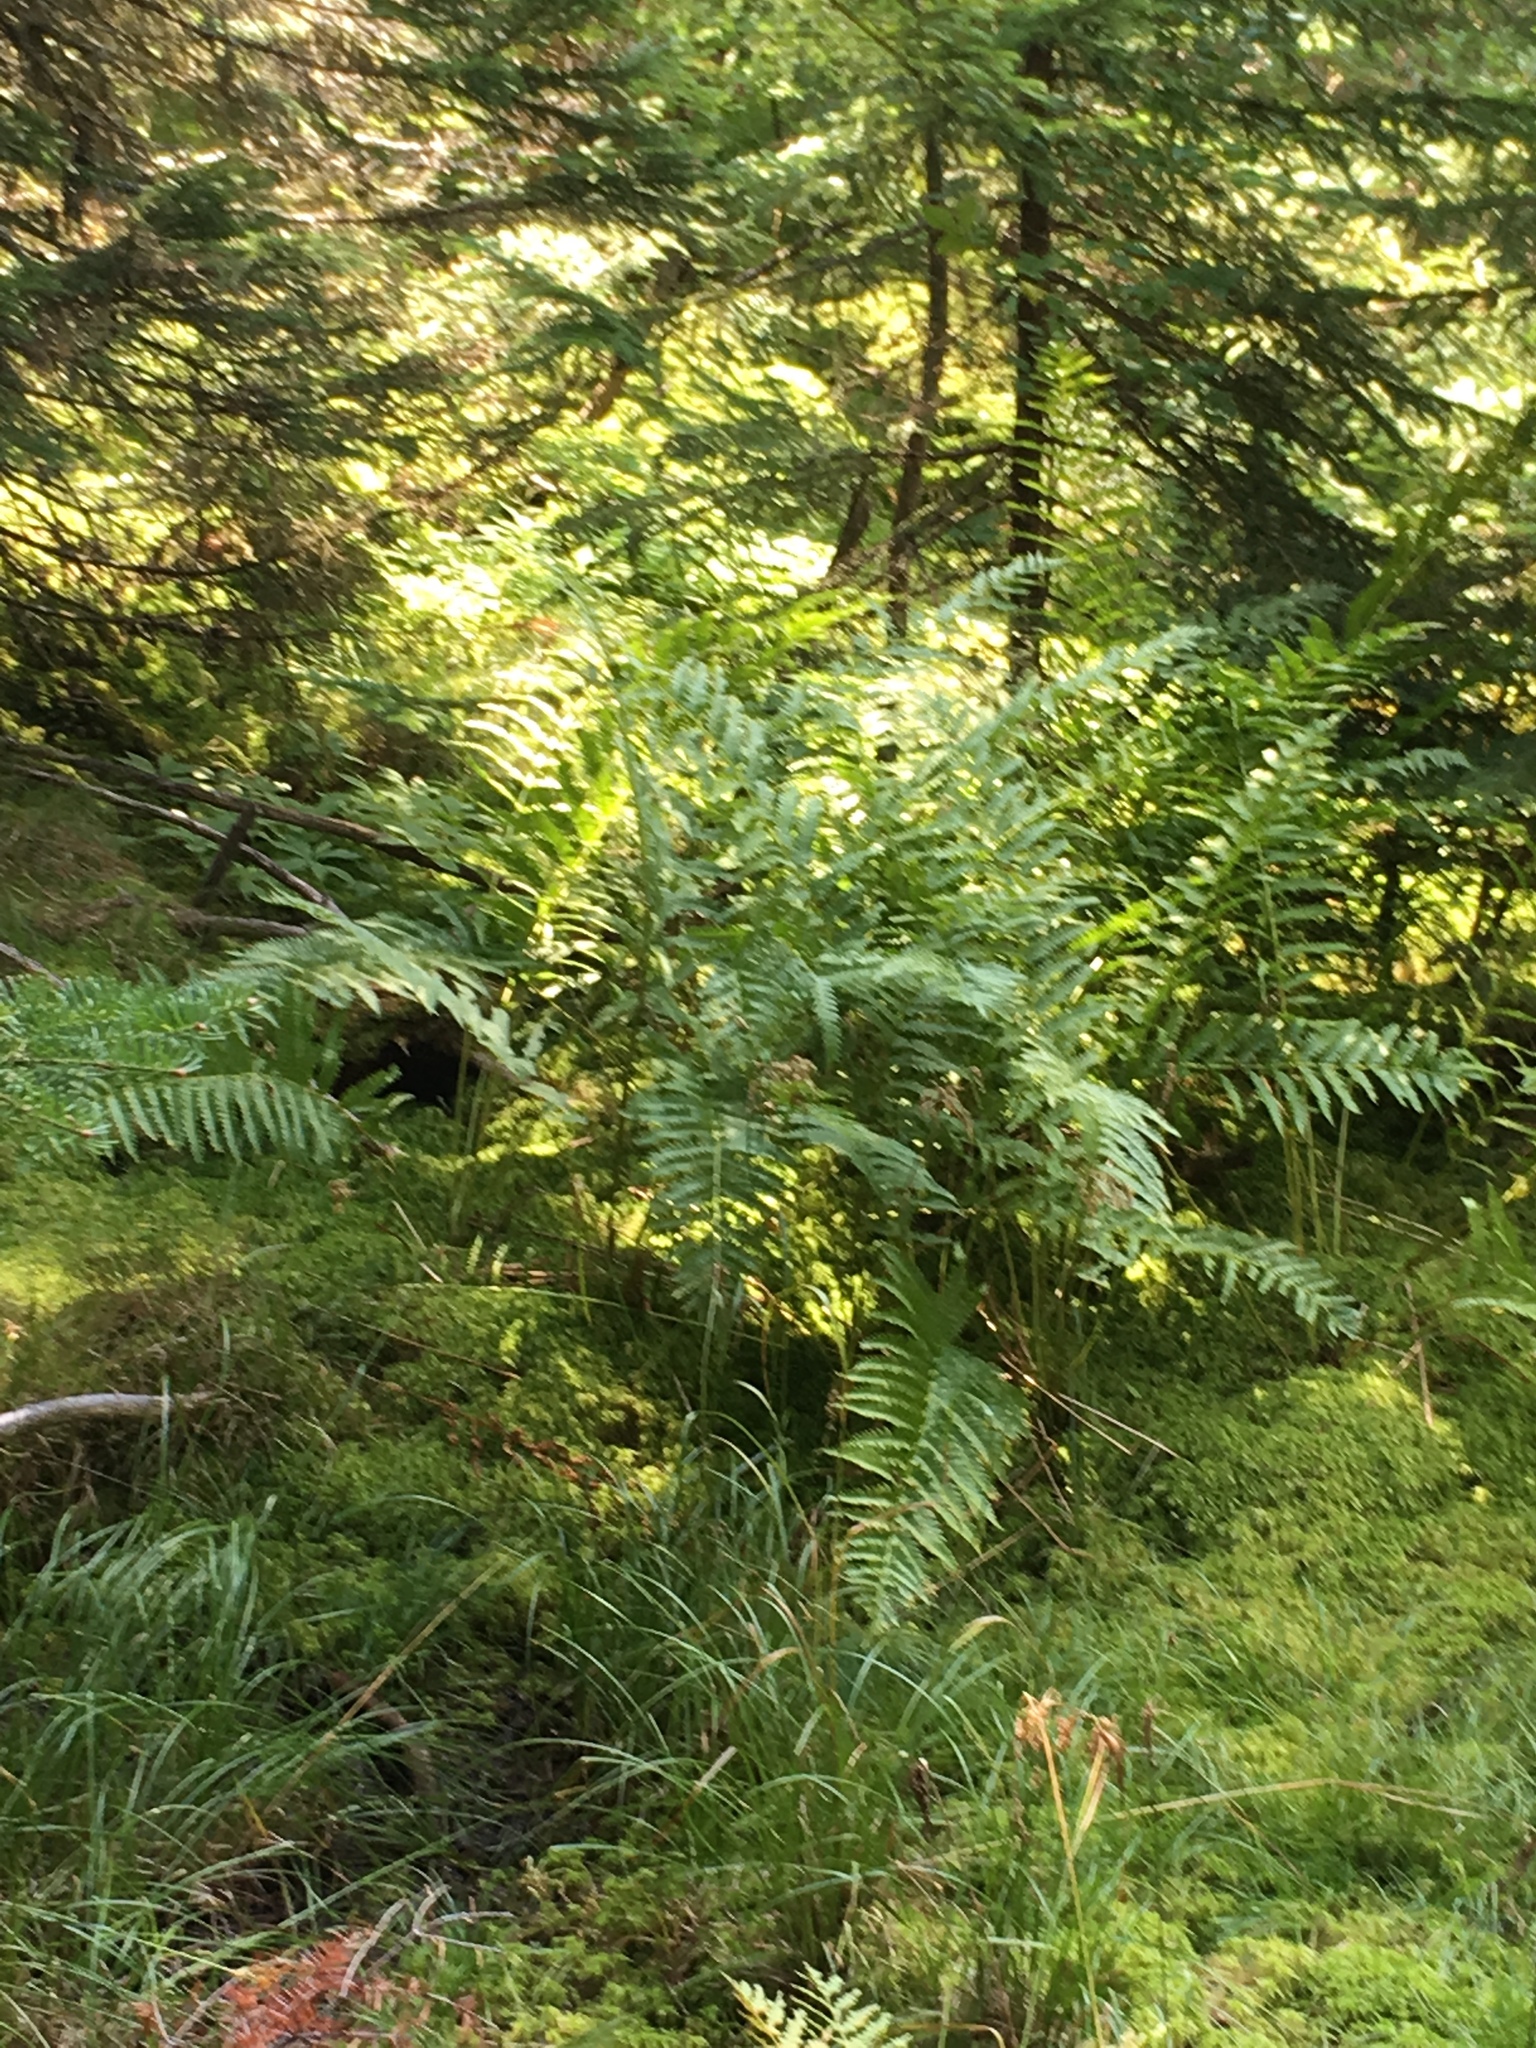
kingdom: Plantae
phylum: Tracheophyta
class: Polypodiopsida
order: Osmundales
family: Osmundaceae
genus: Osmundastrum
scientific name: Osmundastrum cinnamomeum
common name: Cinnamon fern
